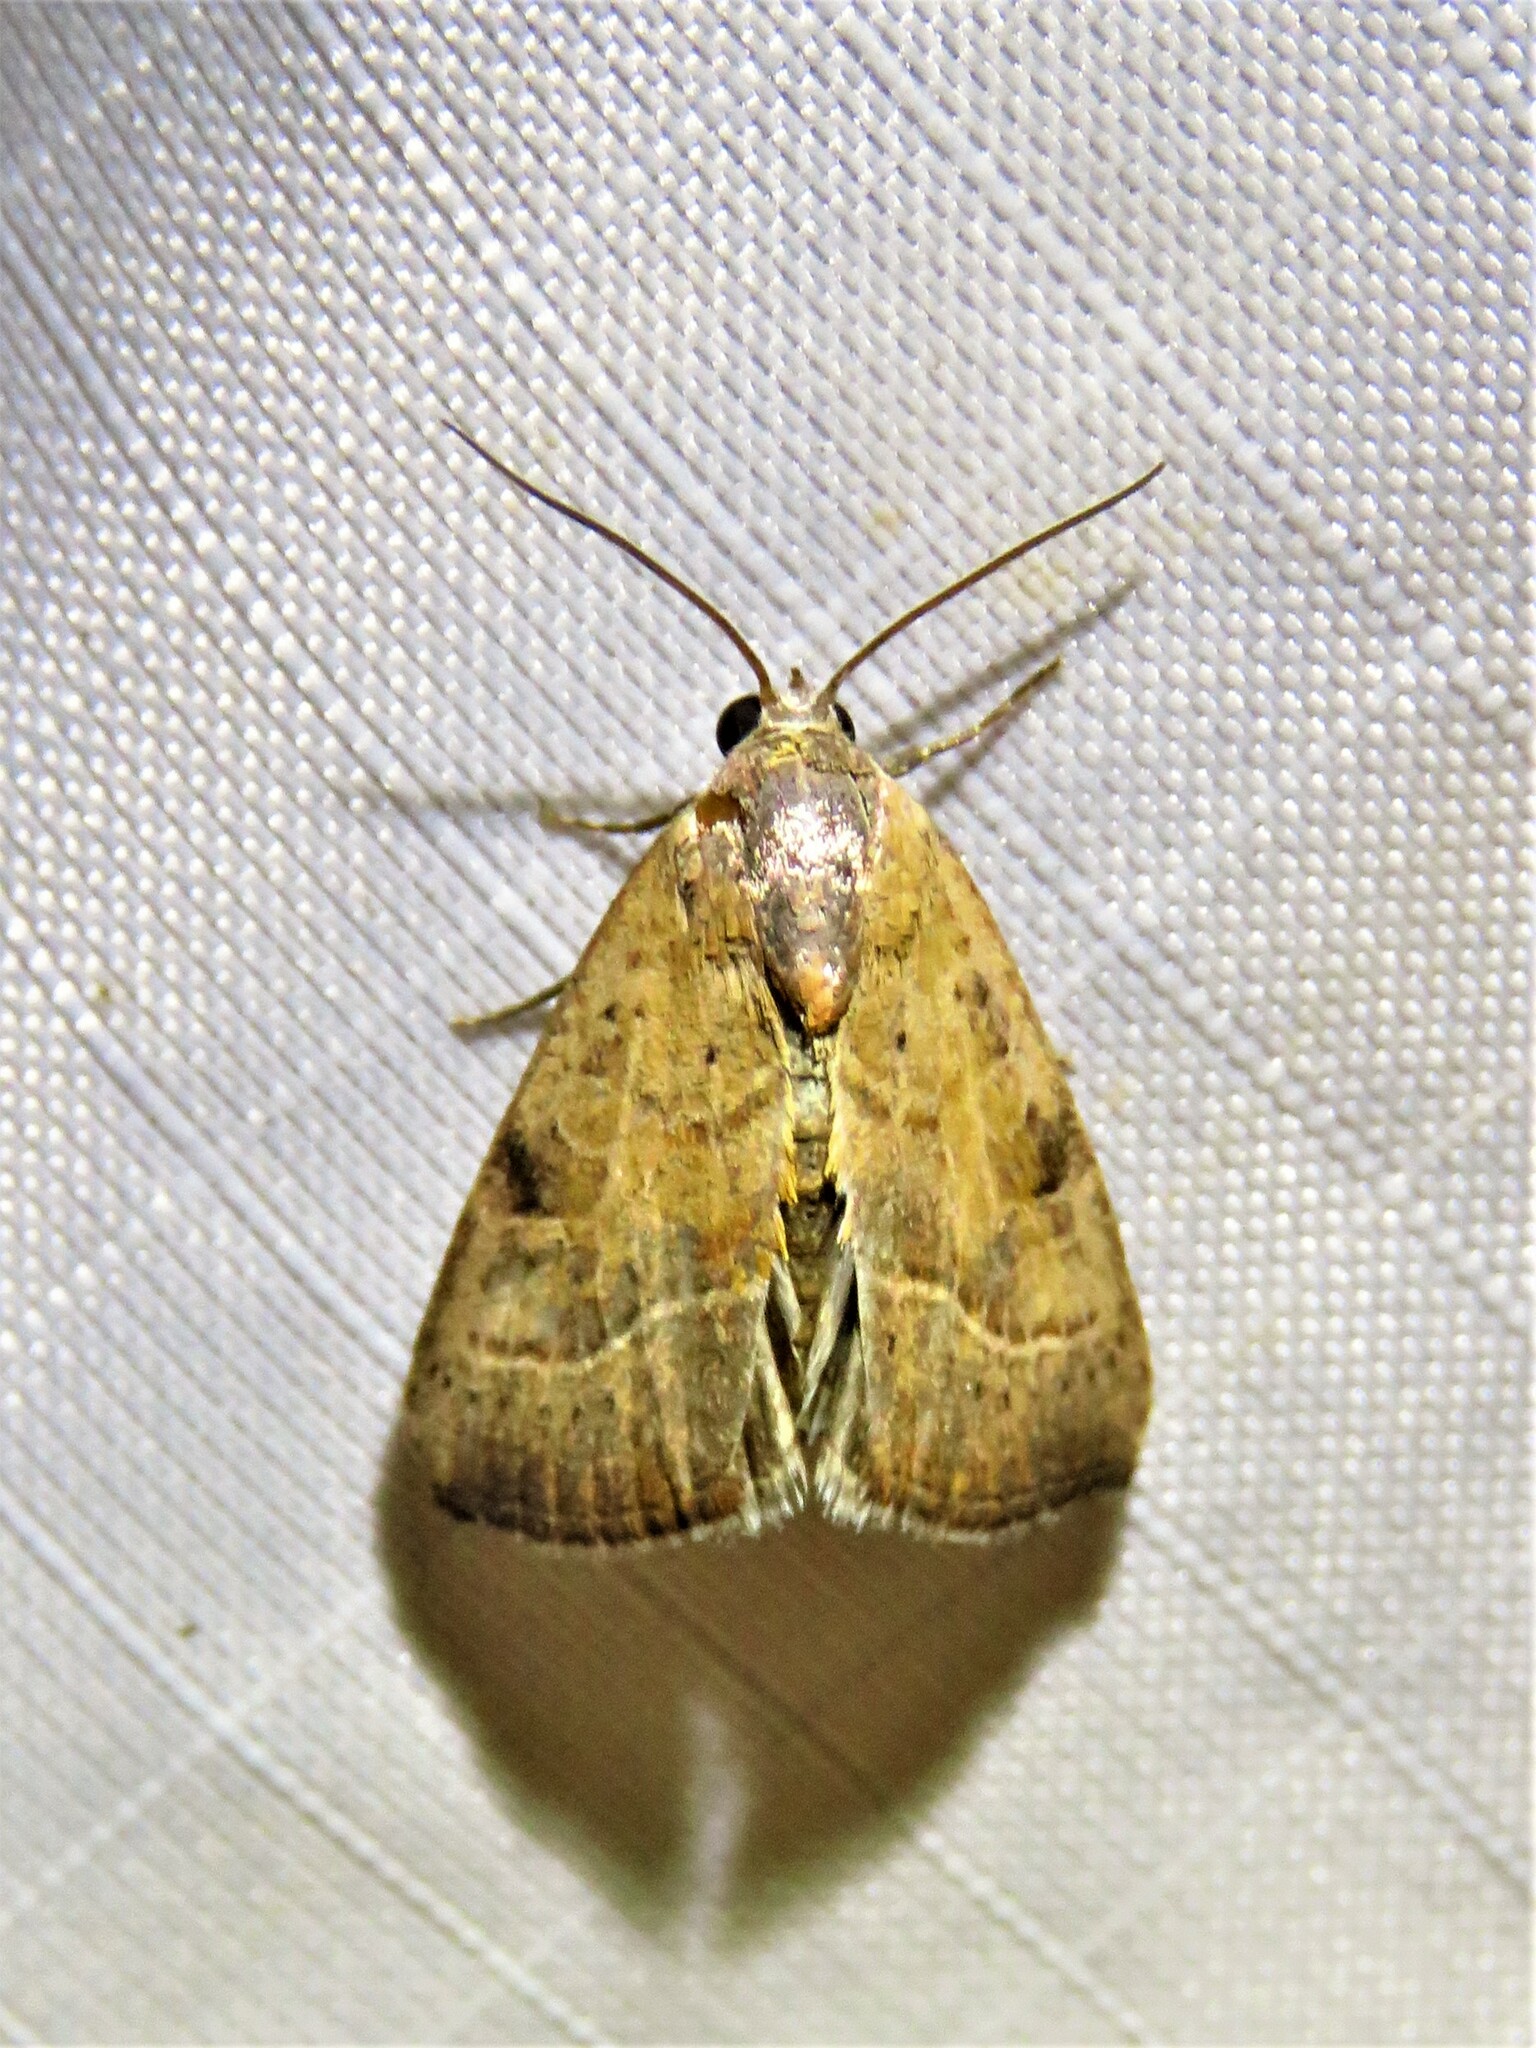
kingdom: Animalia
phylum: Arthropoda
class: Insecta
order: Lepidoptera
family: Noctuidae
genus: Galgula
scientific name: Galgula partita
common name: Wedgeling
